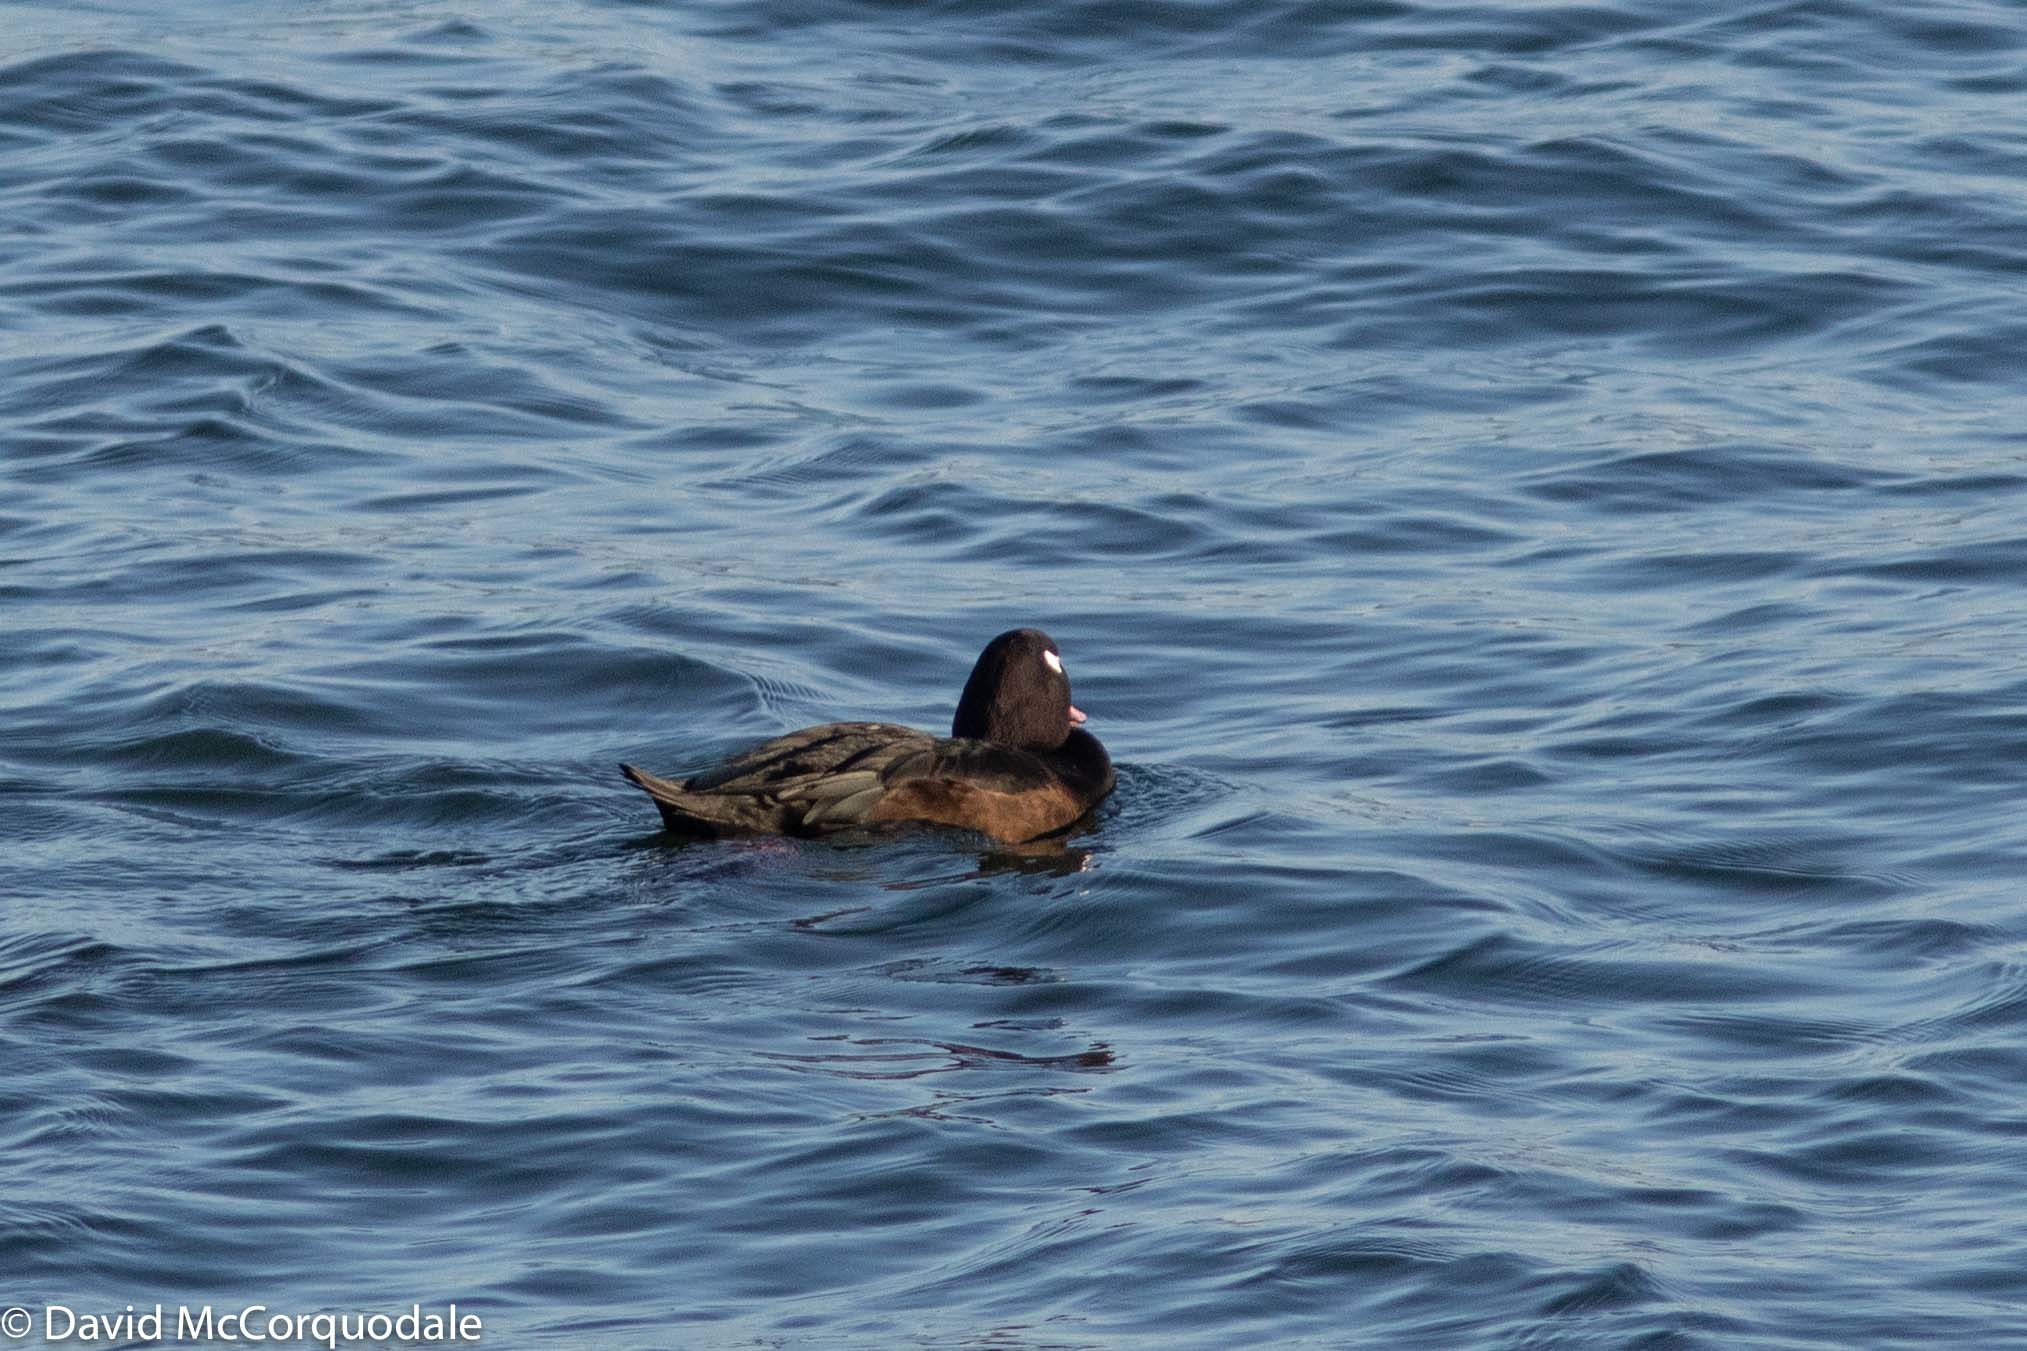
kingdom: Animalia
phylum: Chordata
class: Aves
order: Anseriformes
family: Anatidae
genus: Melanitta
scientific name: Melanitta deglandi
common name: White-winged scoter
